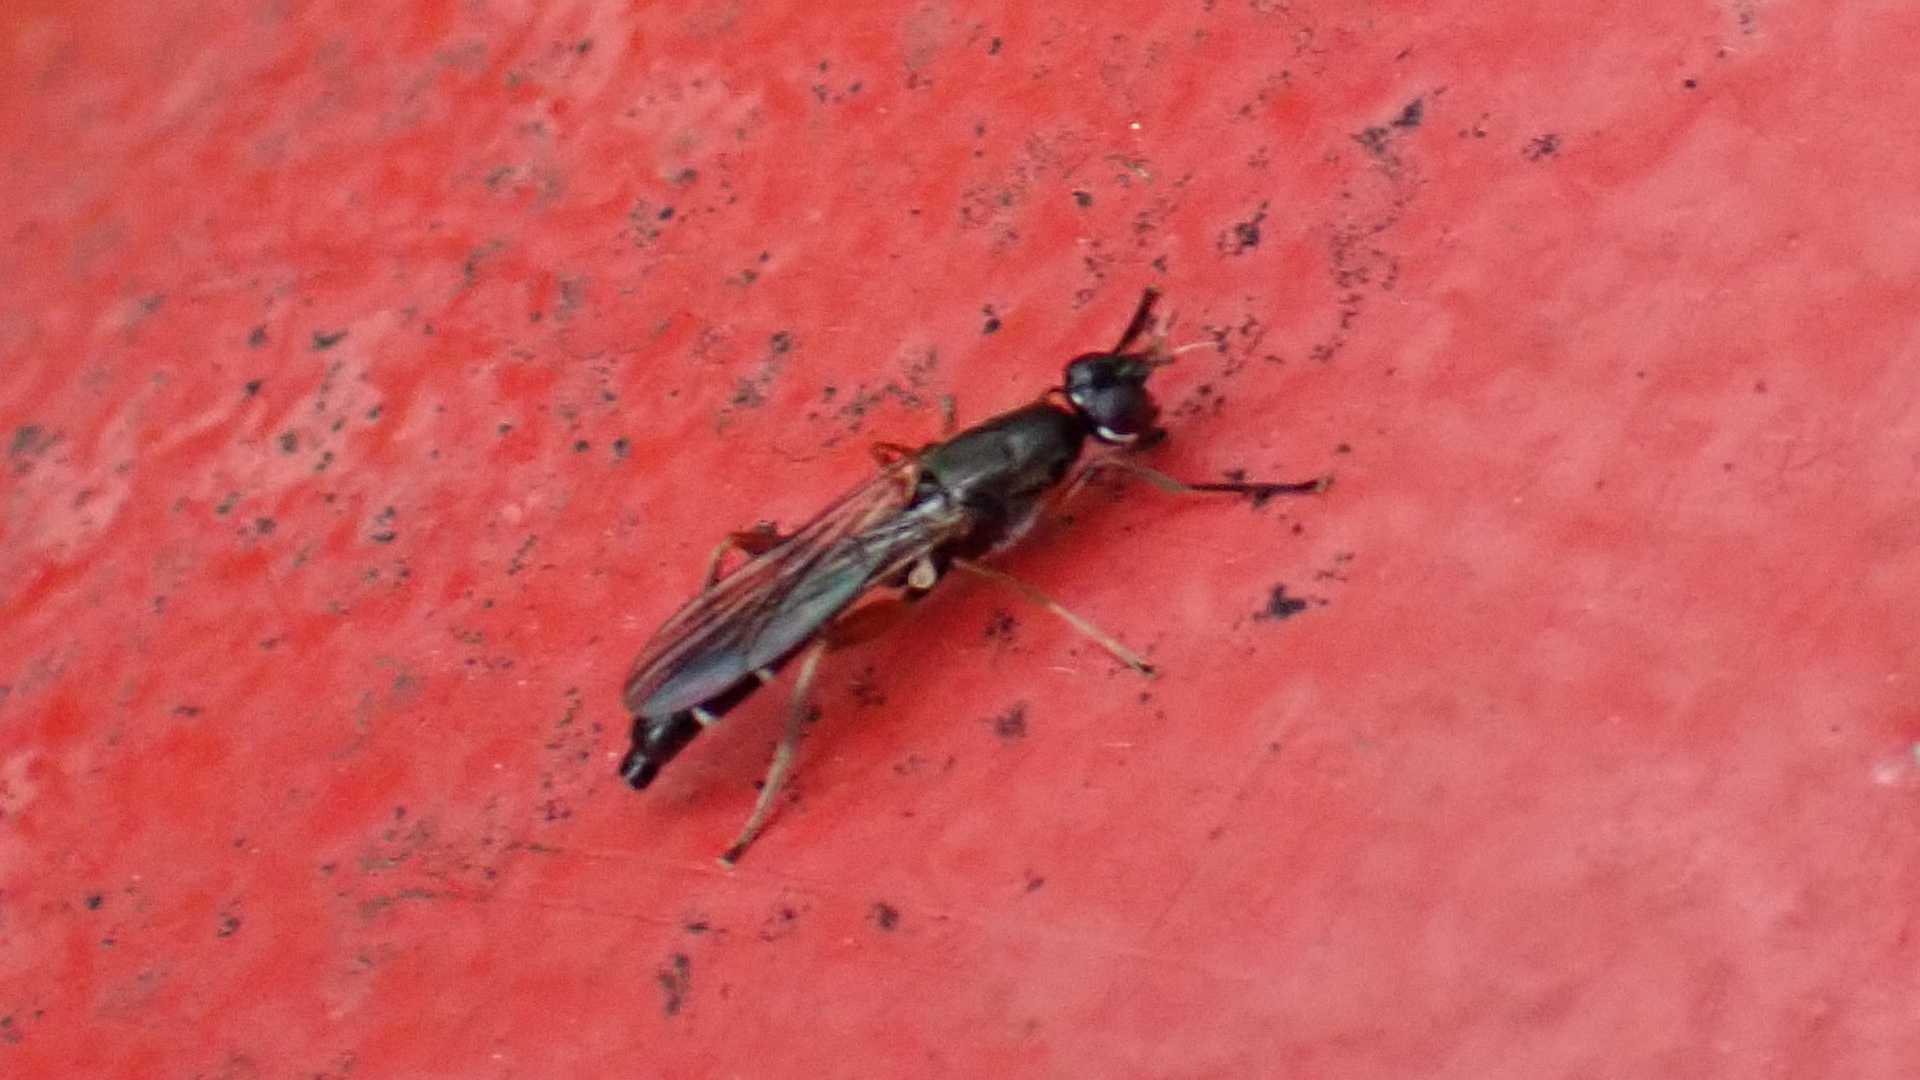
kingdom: Animalia
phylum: Arthropoda
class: Insecta
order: Diptera
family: Megamerinidae
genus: Megamerina
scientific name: Megamerina dolium
